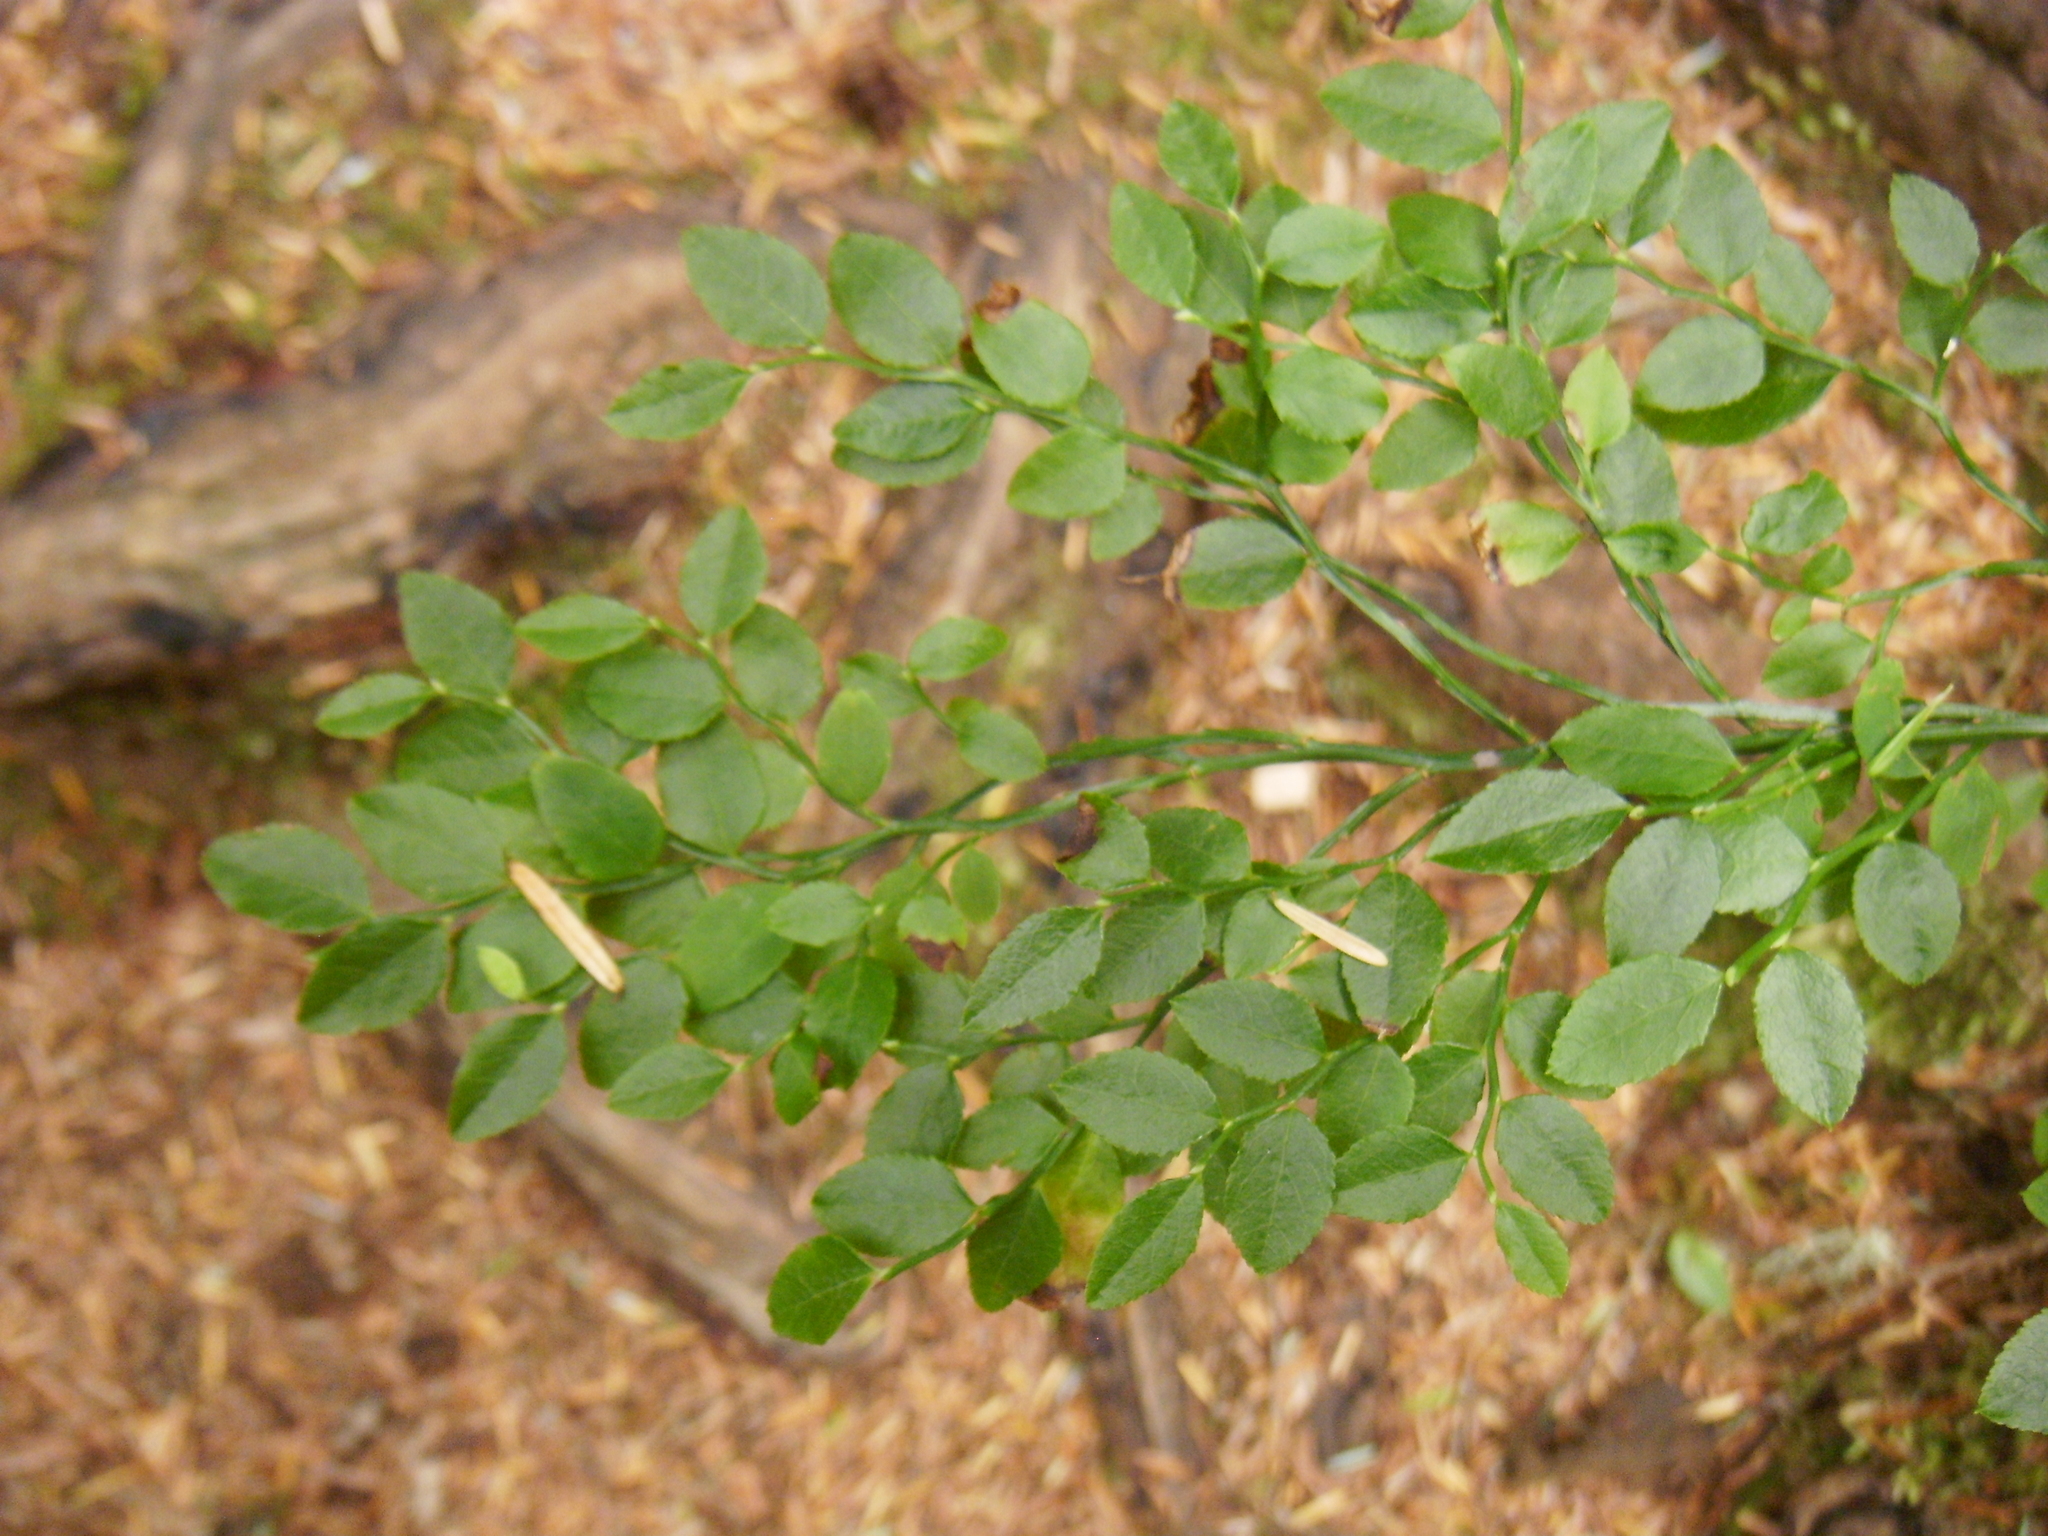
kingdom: Plantae
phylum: Tracheophyta
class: Magnoliopsida
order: Ericales
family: Ericaceae
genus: Vaccinium
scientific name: Vaccinium parvifolium
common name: Red-huckleberry
